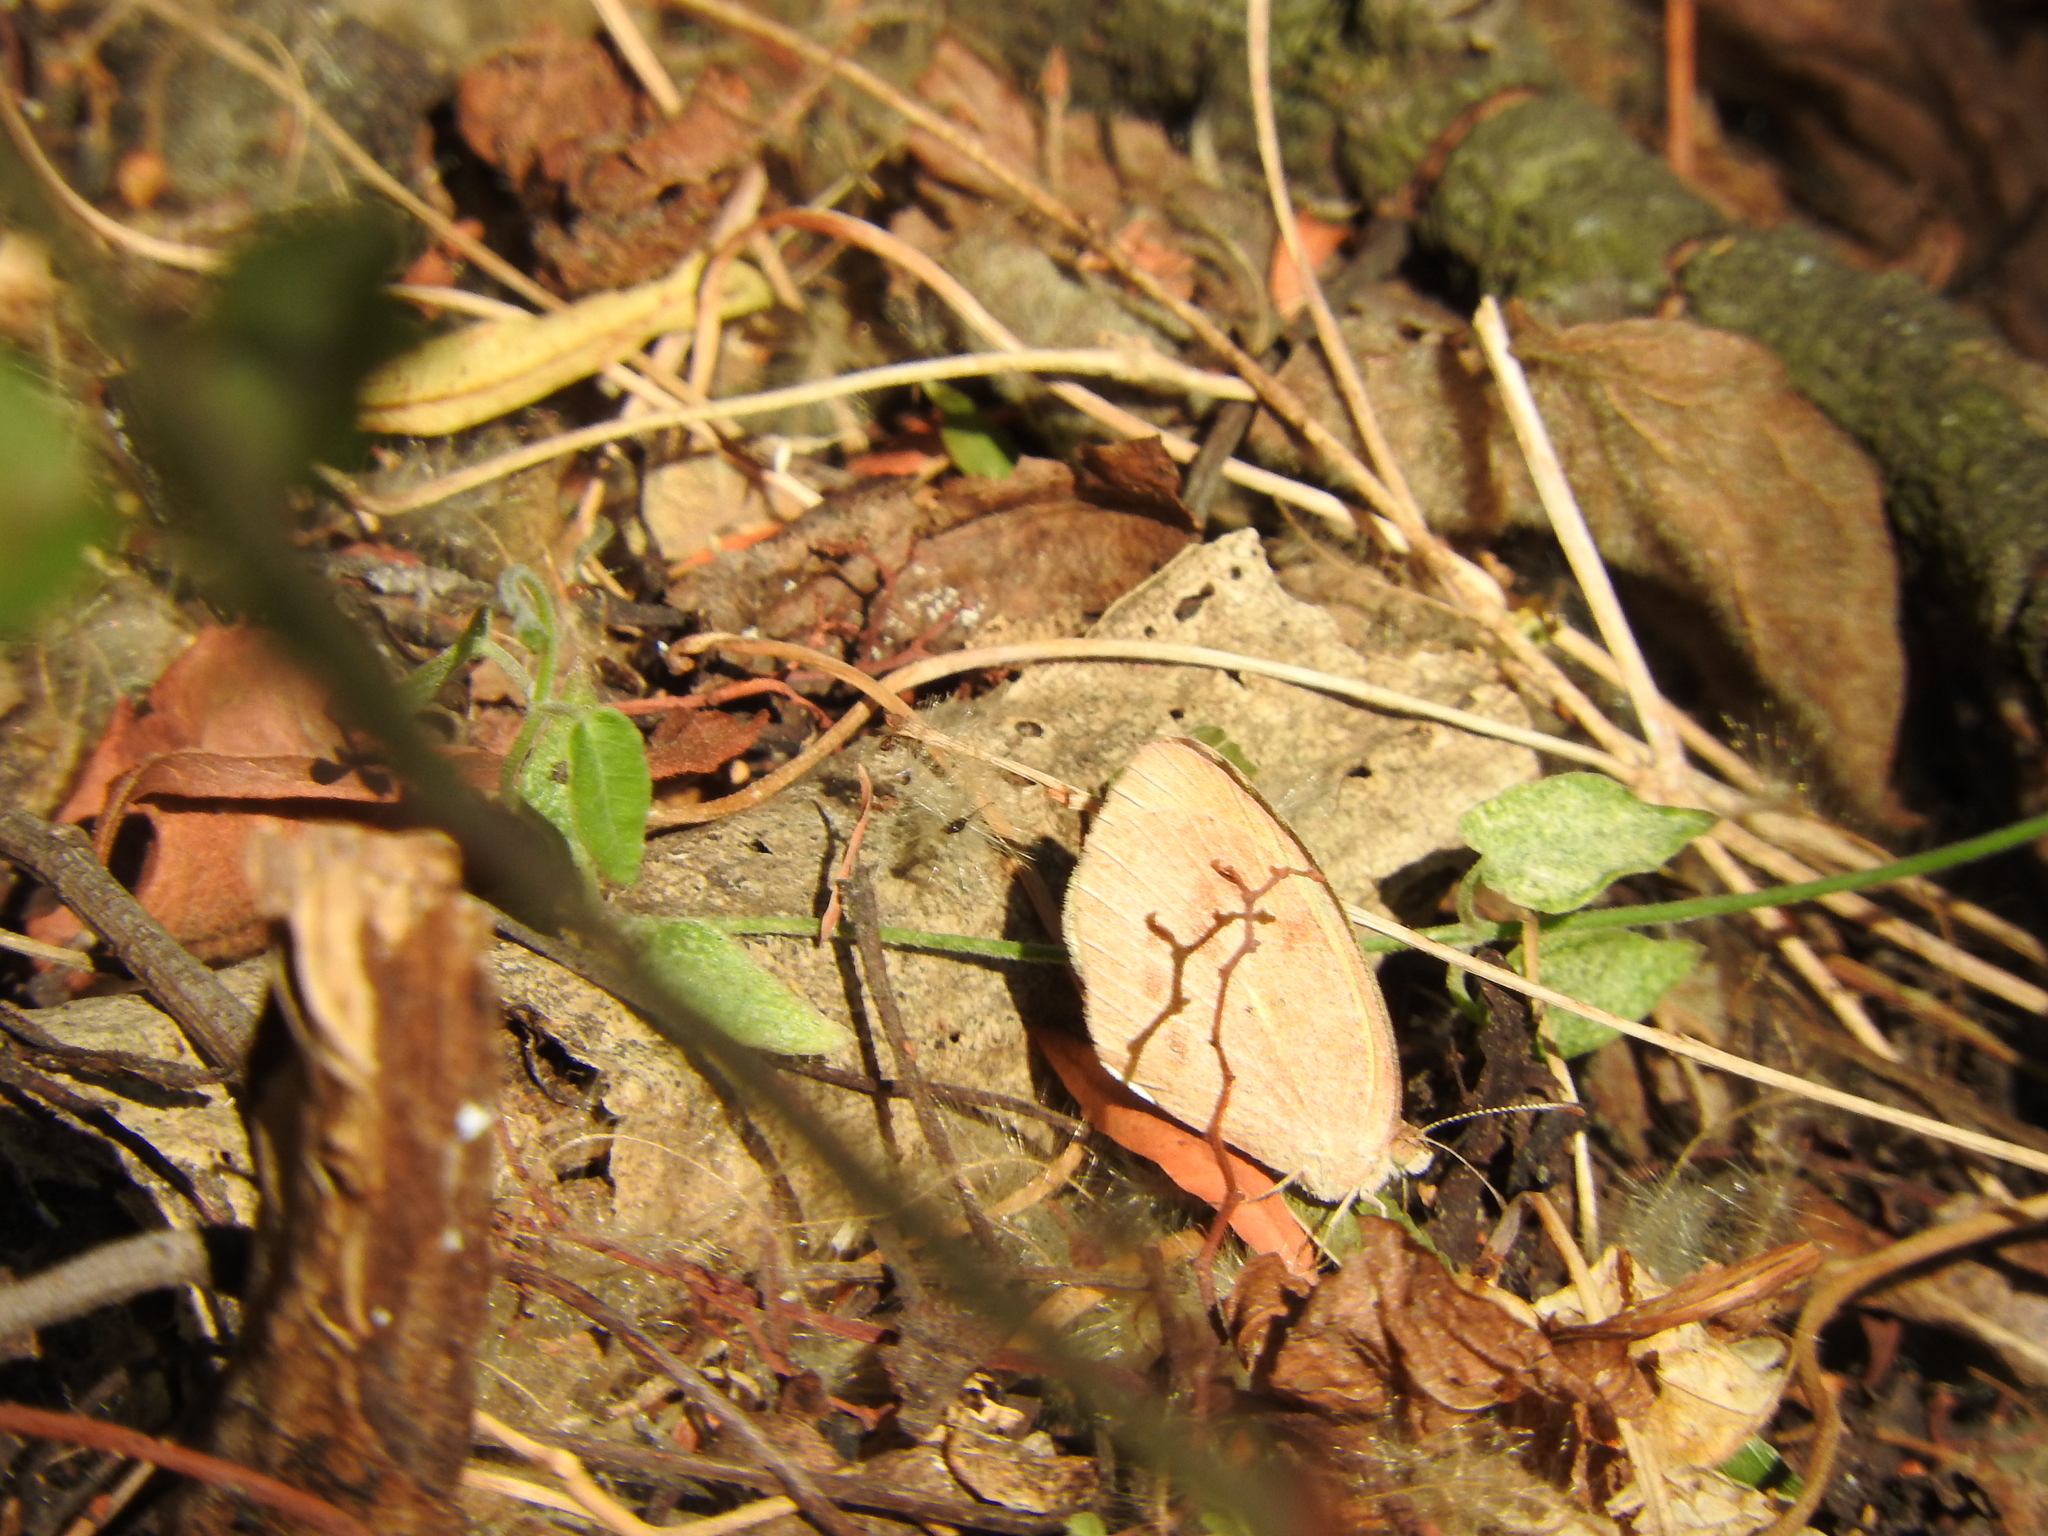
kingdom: Animalia
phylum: Arthropoda
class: Insecta
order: Lepidoptera
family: Pieridae
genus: Eurema
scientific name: Eurema daira
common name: Barred sulphur
